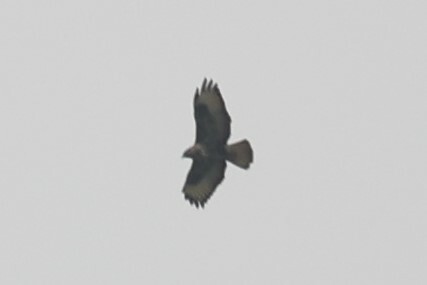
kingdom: Animalia
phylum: Chordata
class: Aves
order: Accipitriformes
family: Accipitridae
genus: Buteo
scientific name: Buteo buteo
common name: Common buzzard
